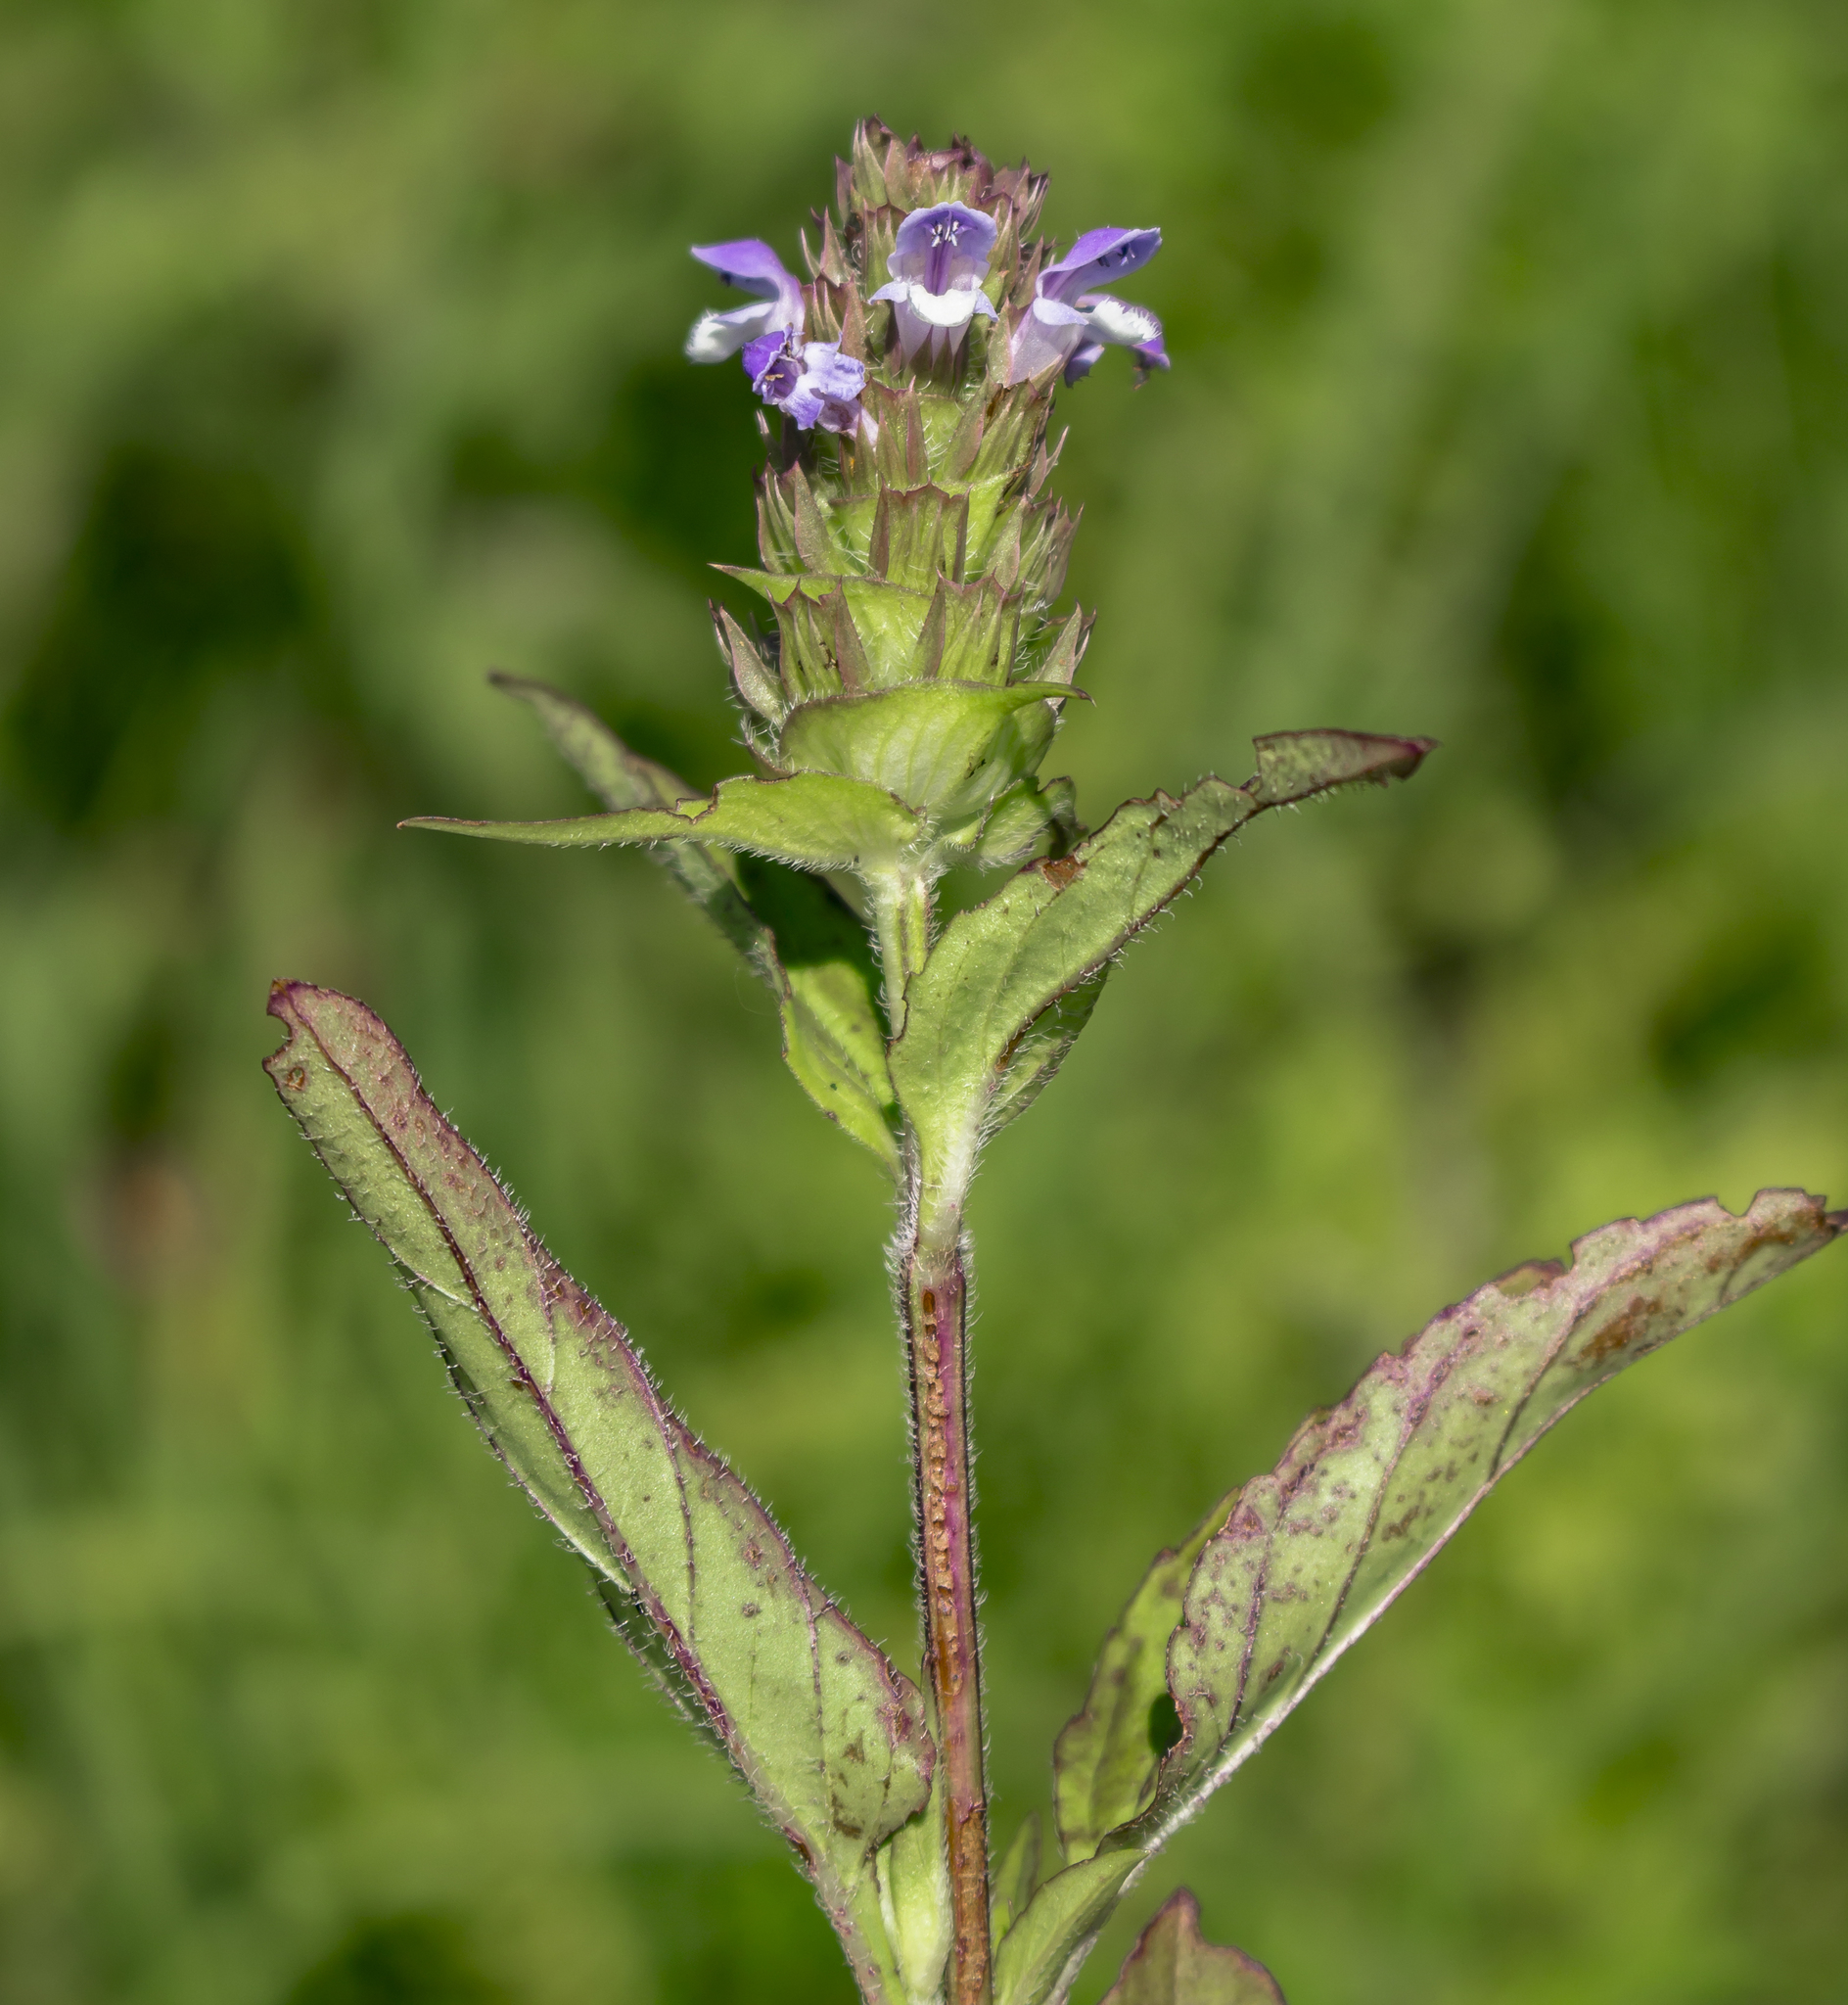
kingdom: Plantae
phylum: Tracheophyta
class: Magnoliopsida
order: Lamiales
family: Lamiaceae
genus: Prunella
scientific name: Prunella vulgaris
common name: Heal-all
